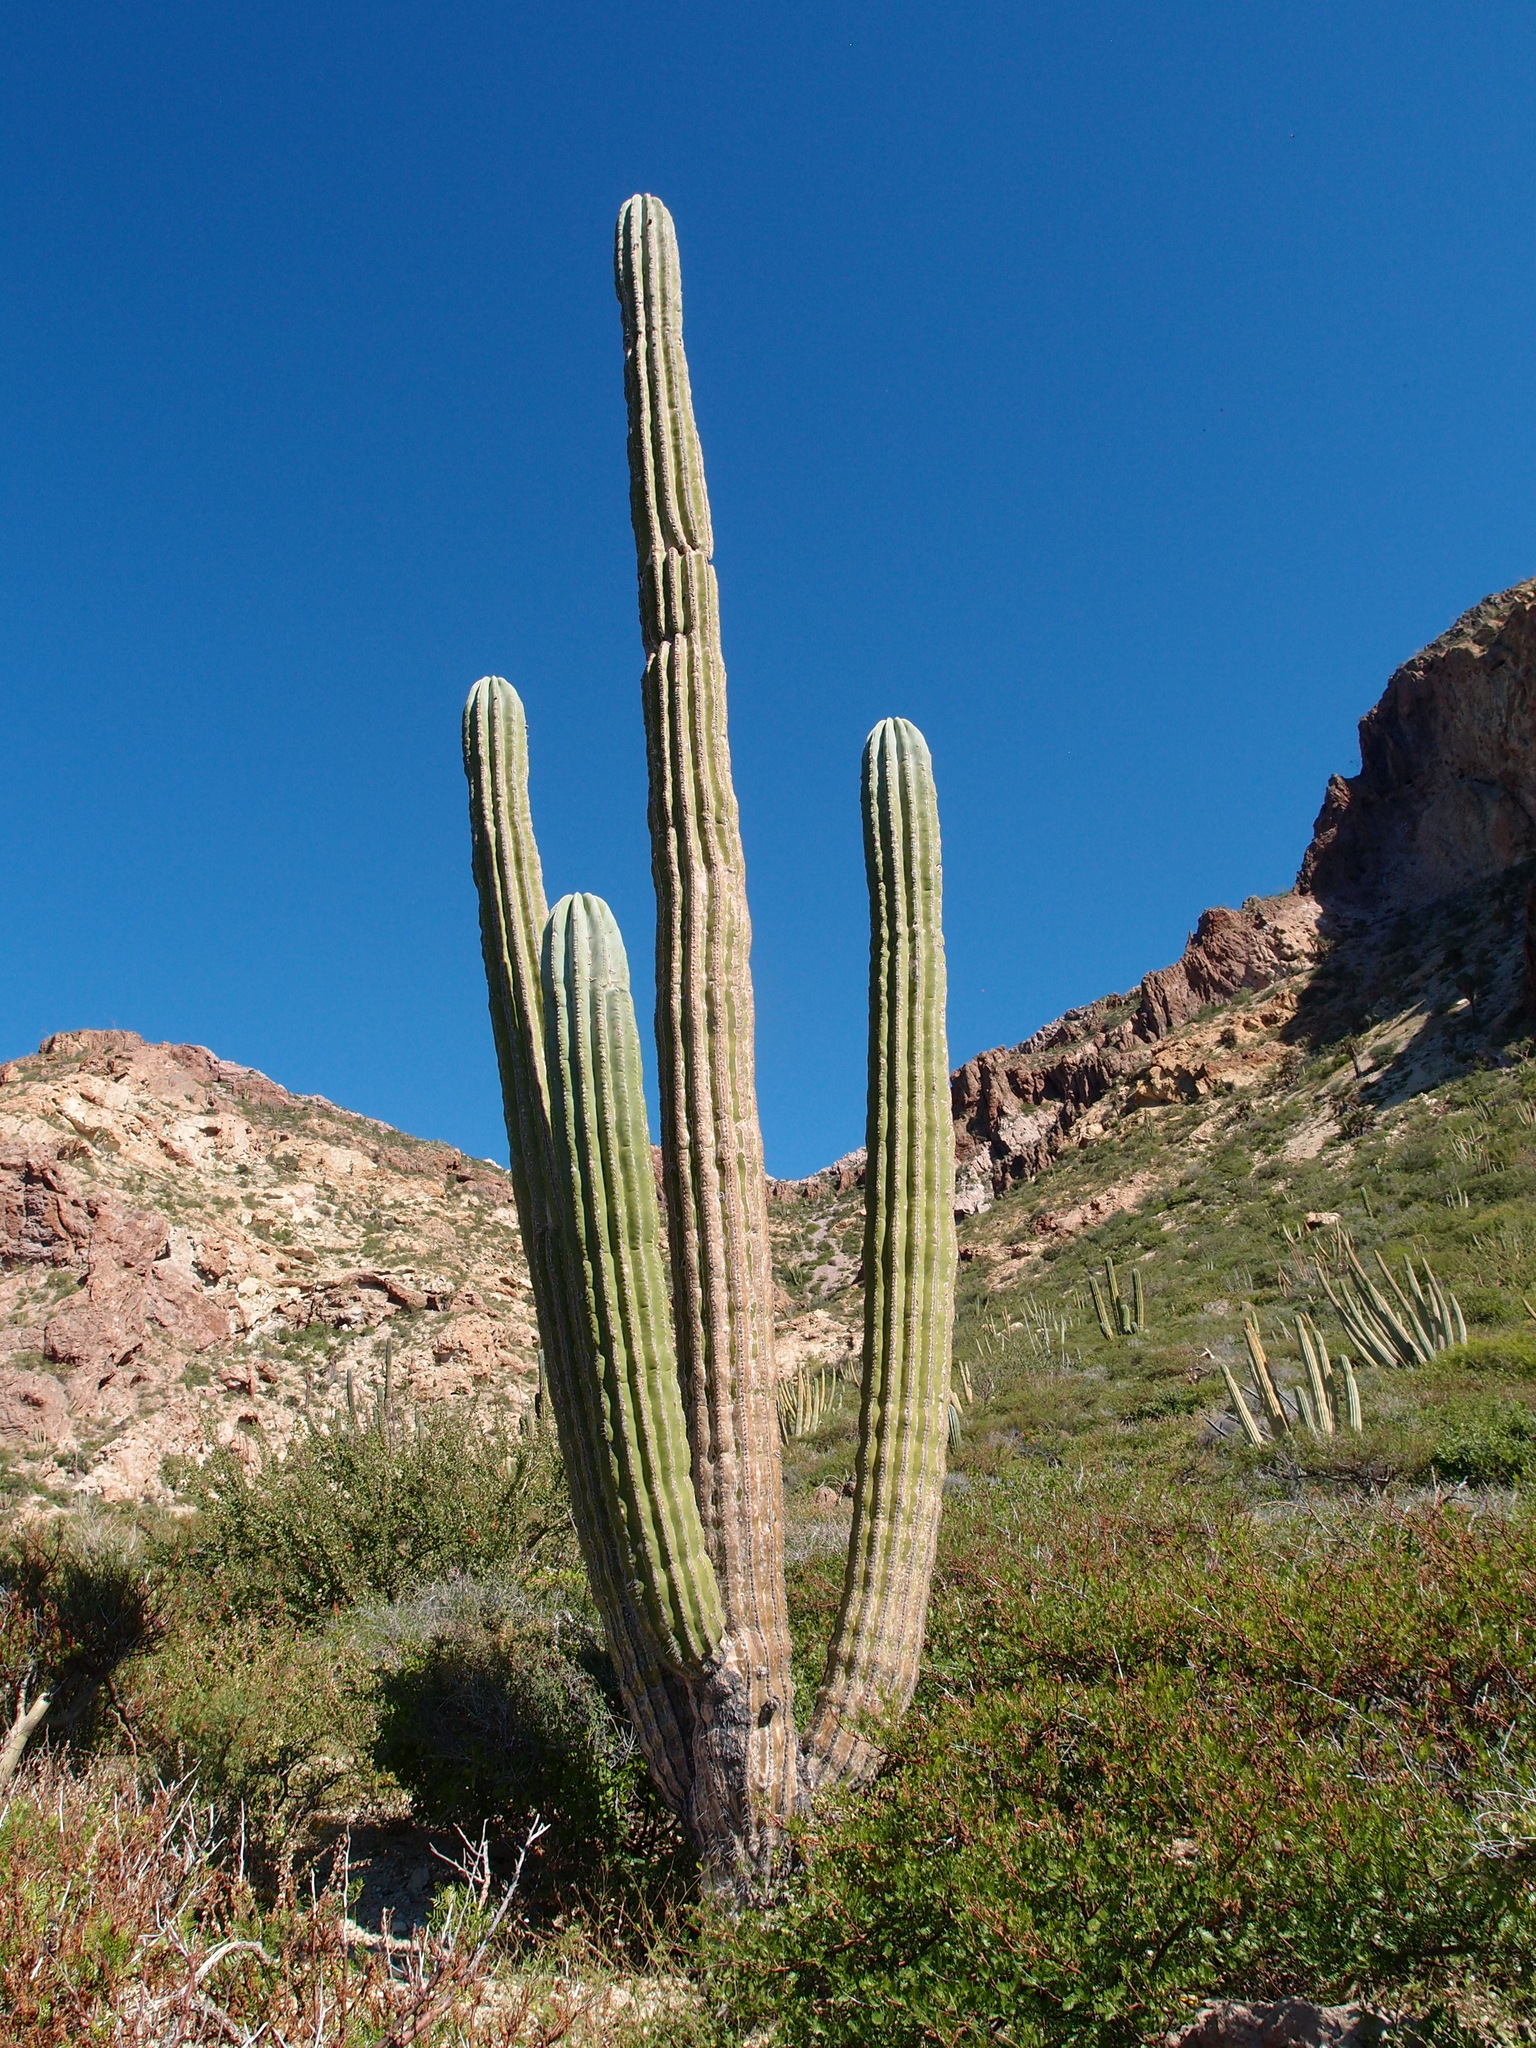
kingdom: Plantae
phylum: Tracheophyta
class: Magnoliopsida
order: Caryophyllales
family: Cactaceae
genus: Pachycereus
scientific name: Pachycereus pringlei
